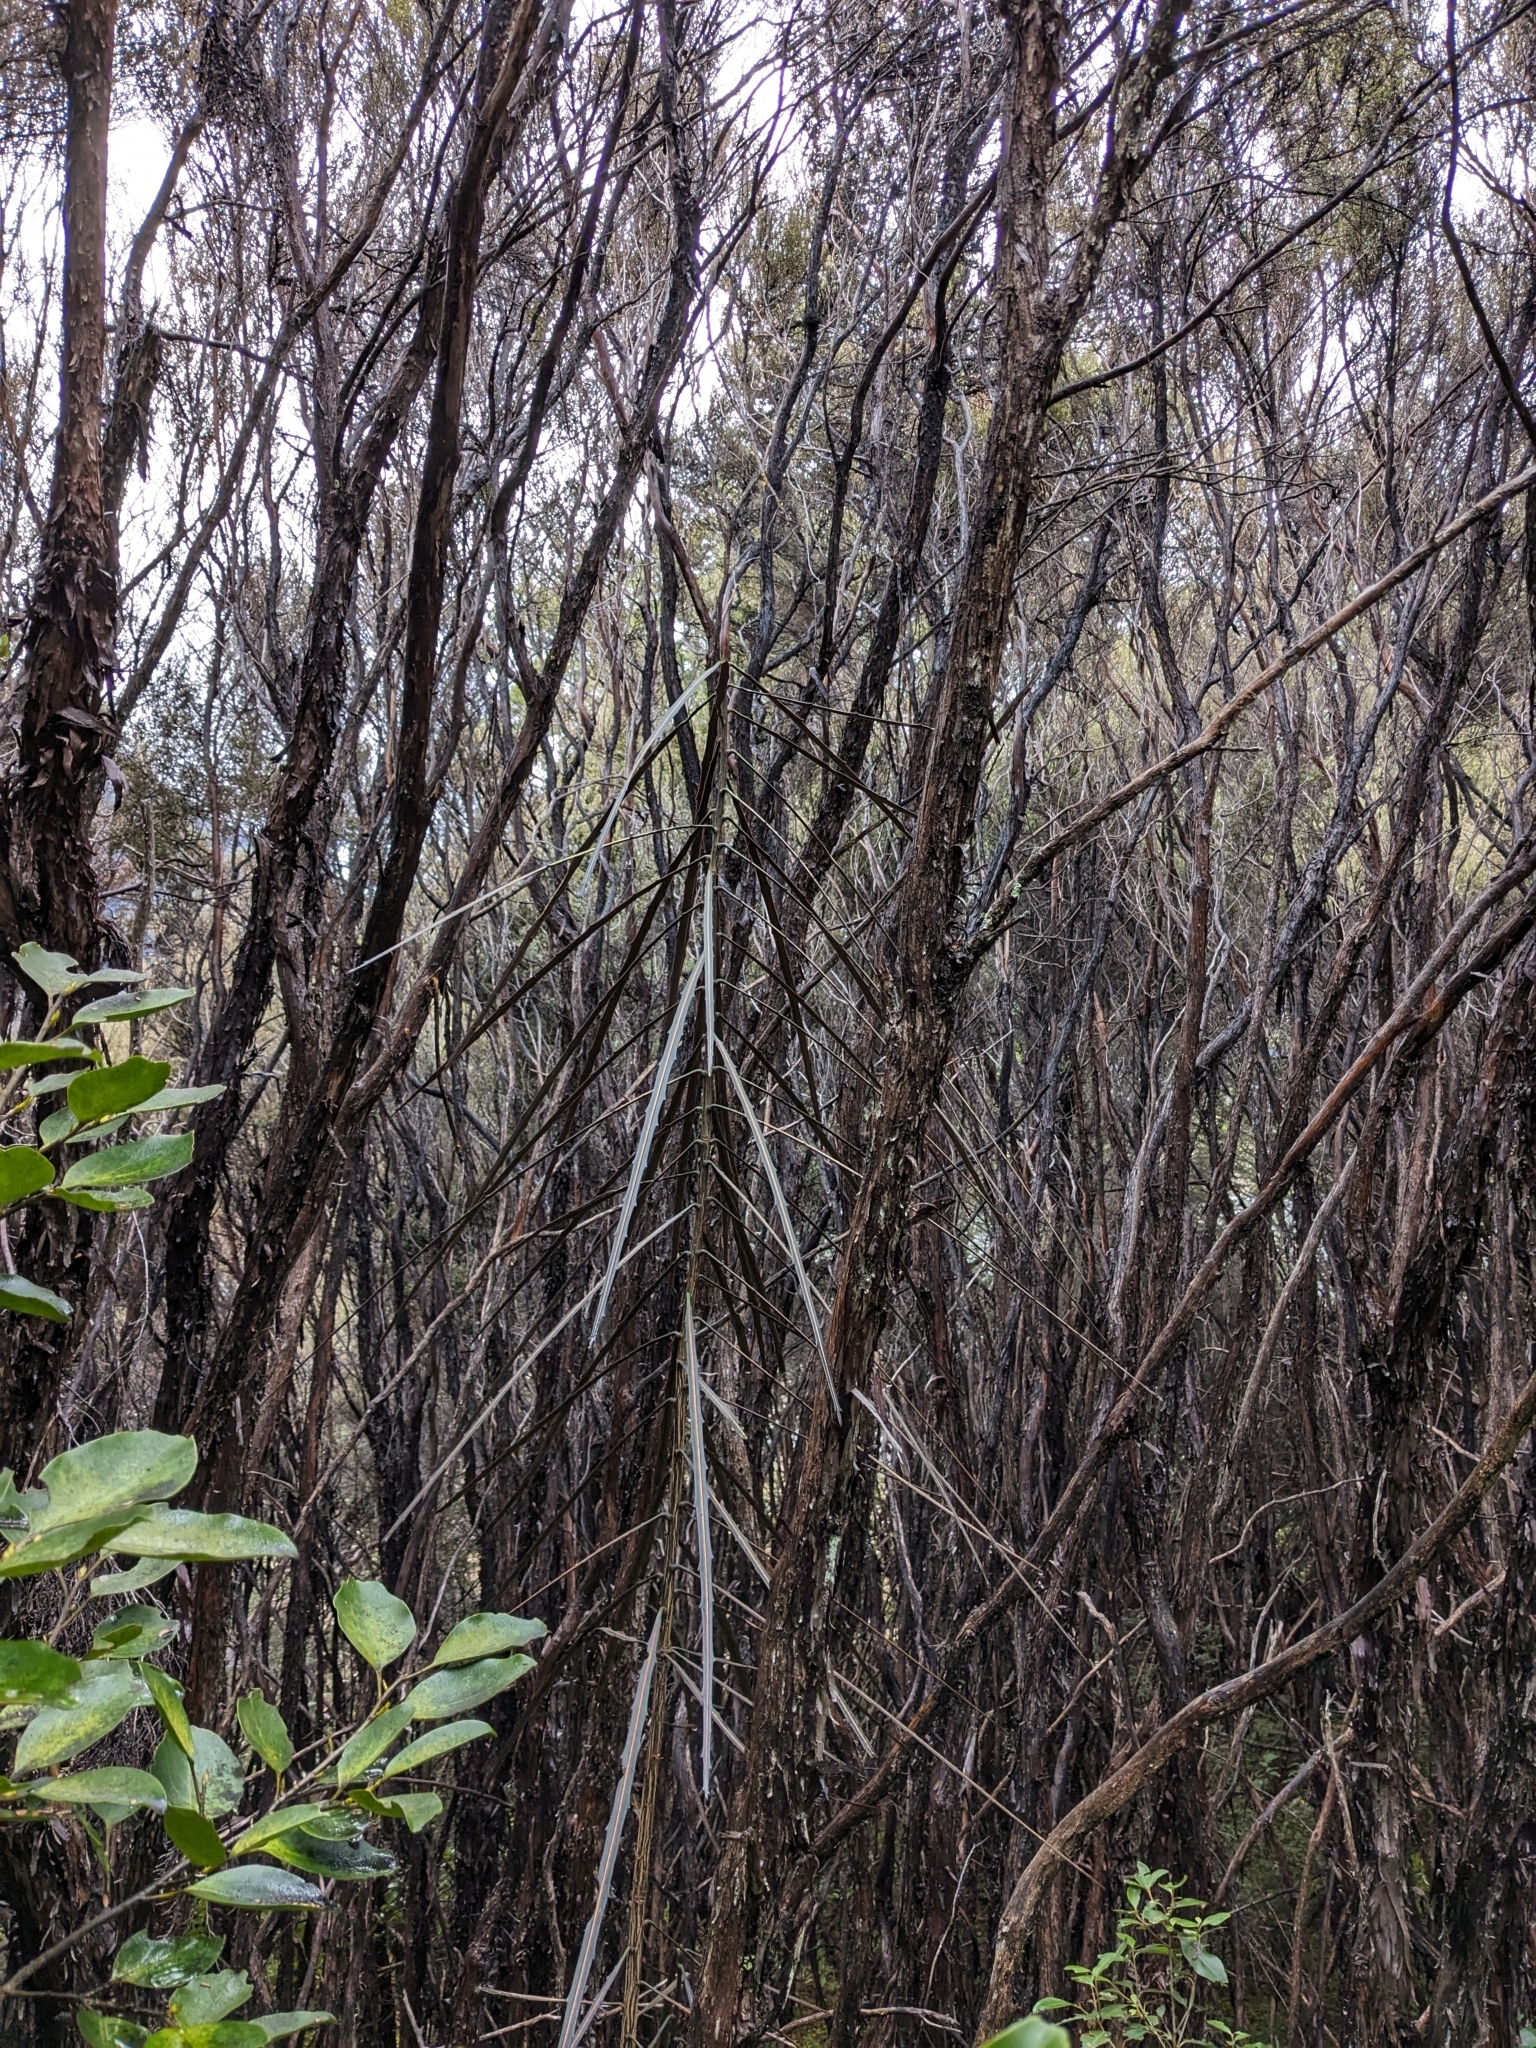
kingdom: Plantae
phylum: Tracheophyta
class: Magnoliopsida
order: Apiales
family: Araliaceae
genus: Pseudopanax
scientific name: Pseudopanax crassifolius
